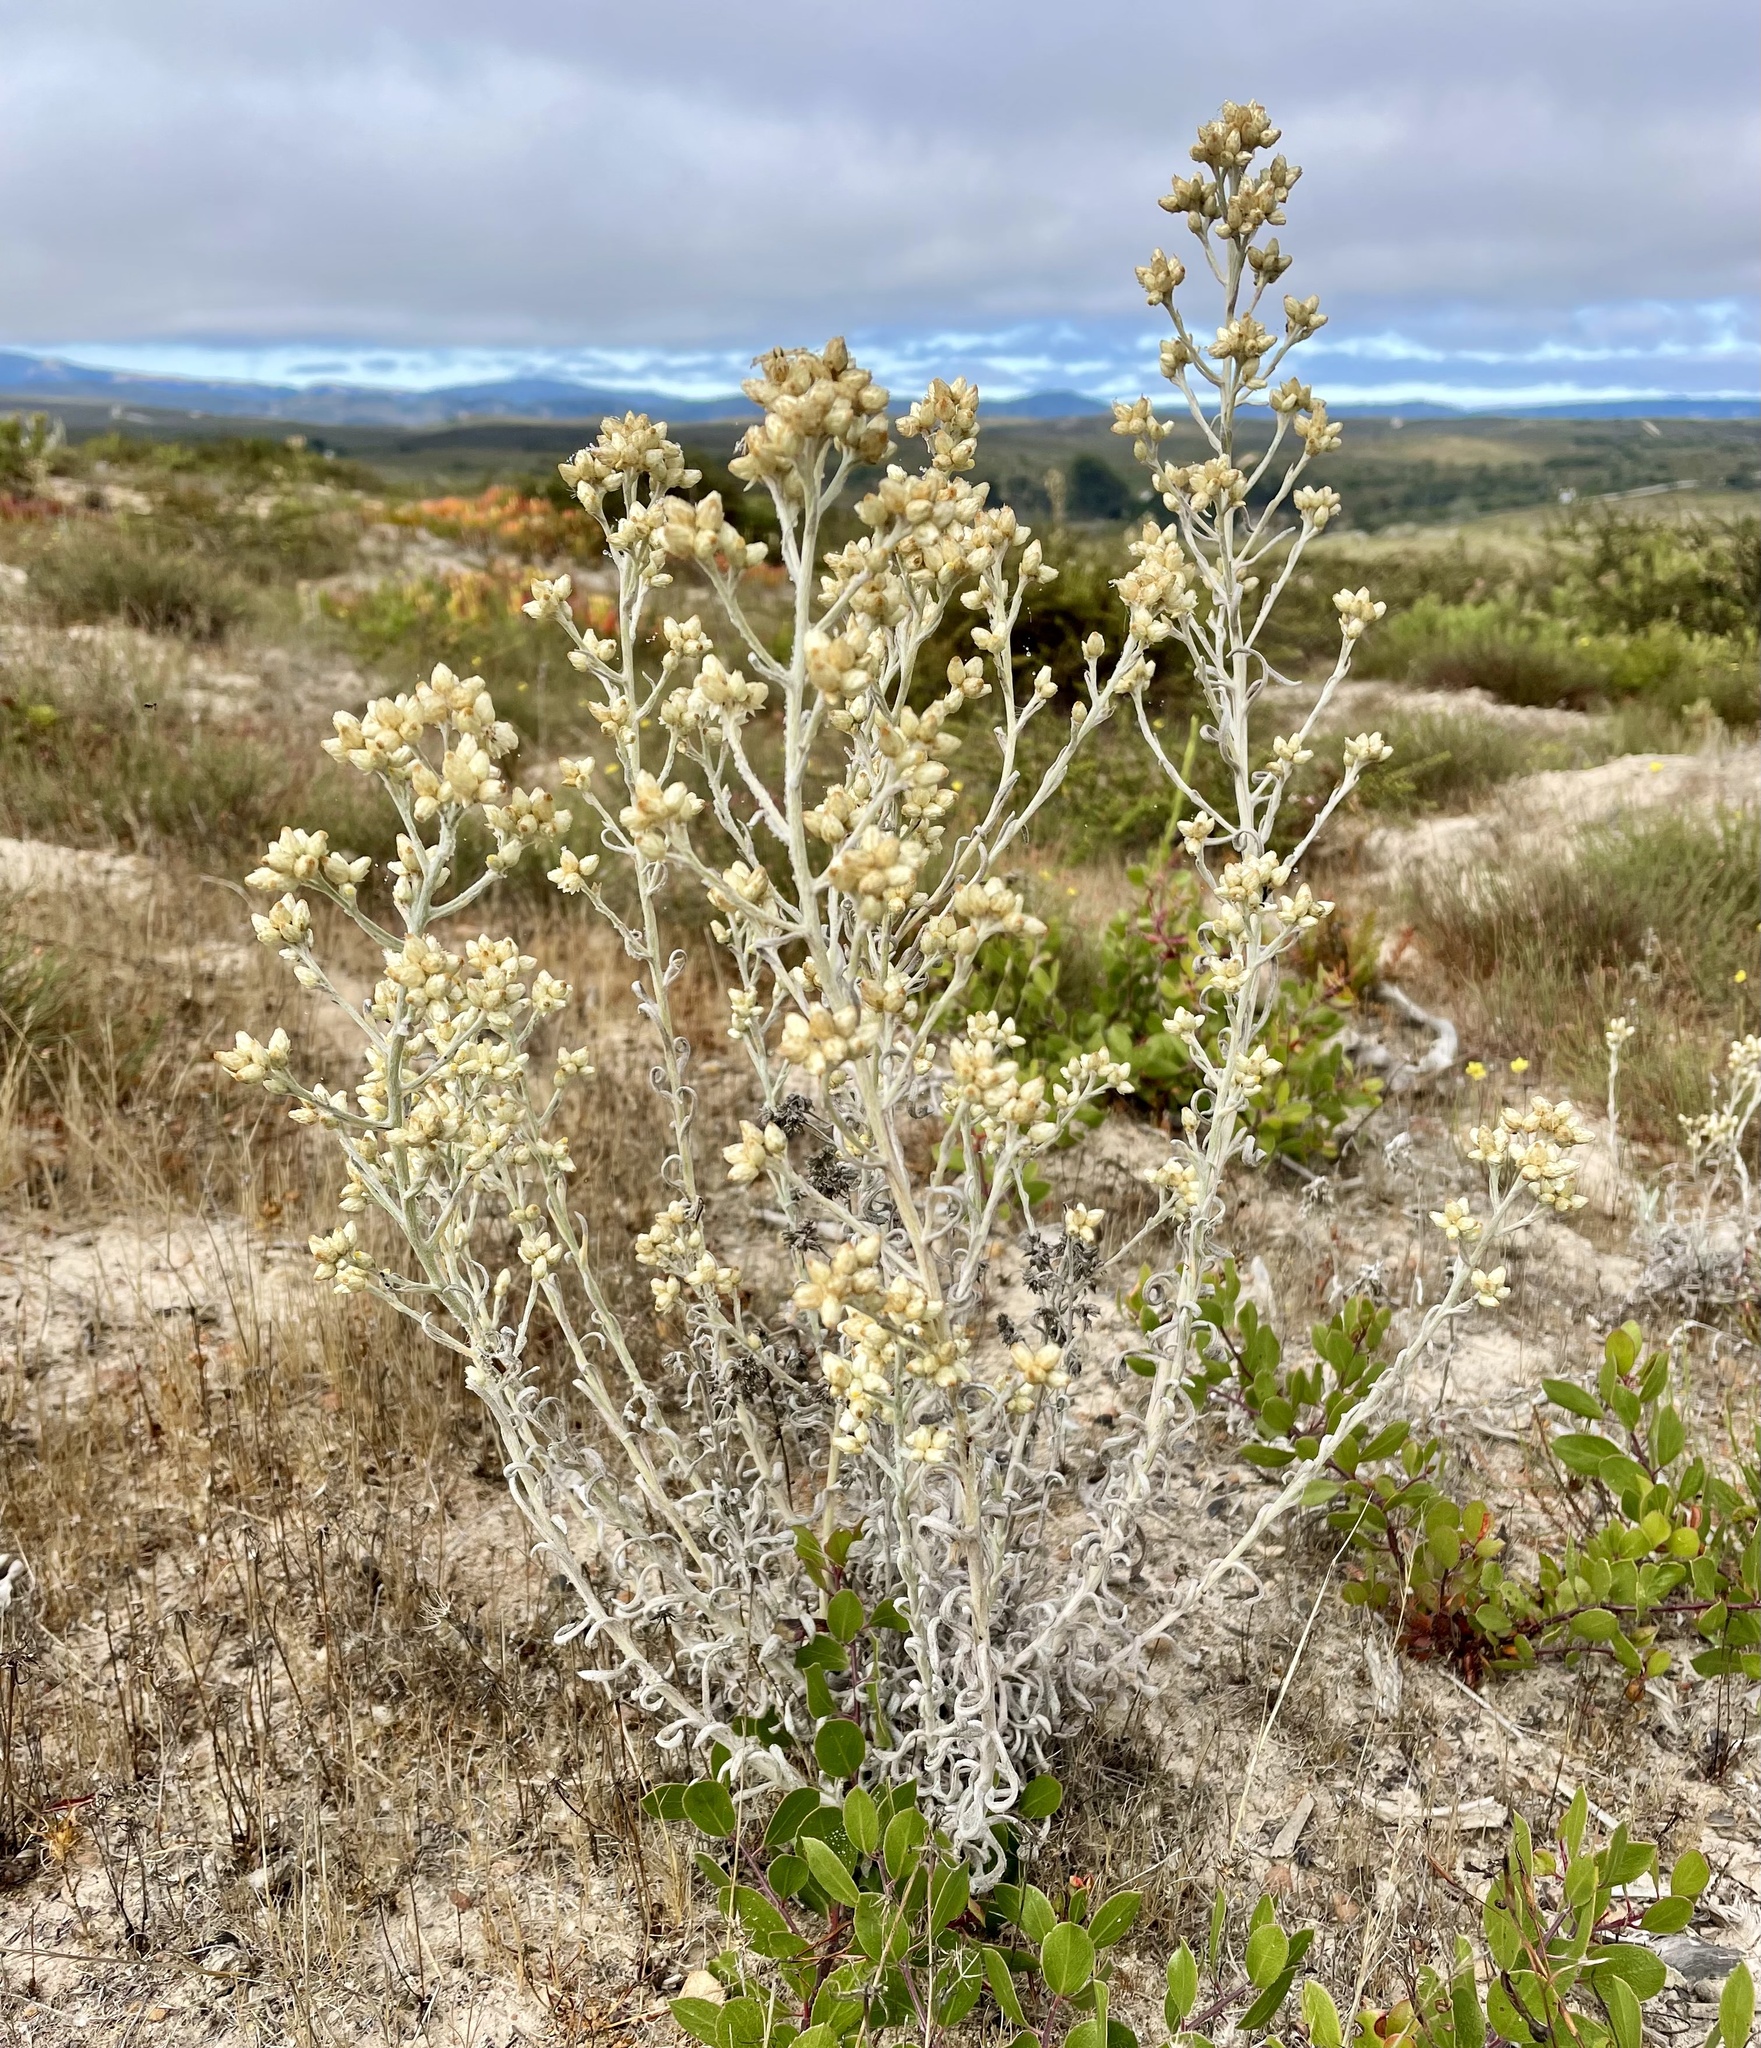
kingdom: Plantae
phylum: Tracheophyta
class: Magnoliopsida
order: Asterales
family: Asteraceae
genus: Pseudognaphalium
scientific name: Pseudognaphalium beneolens
